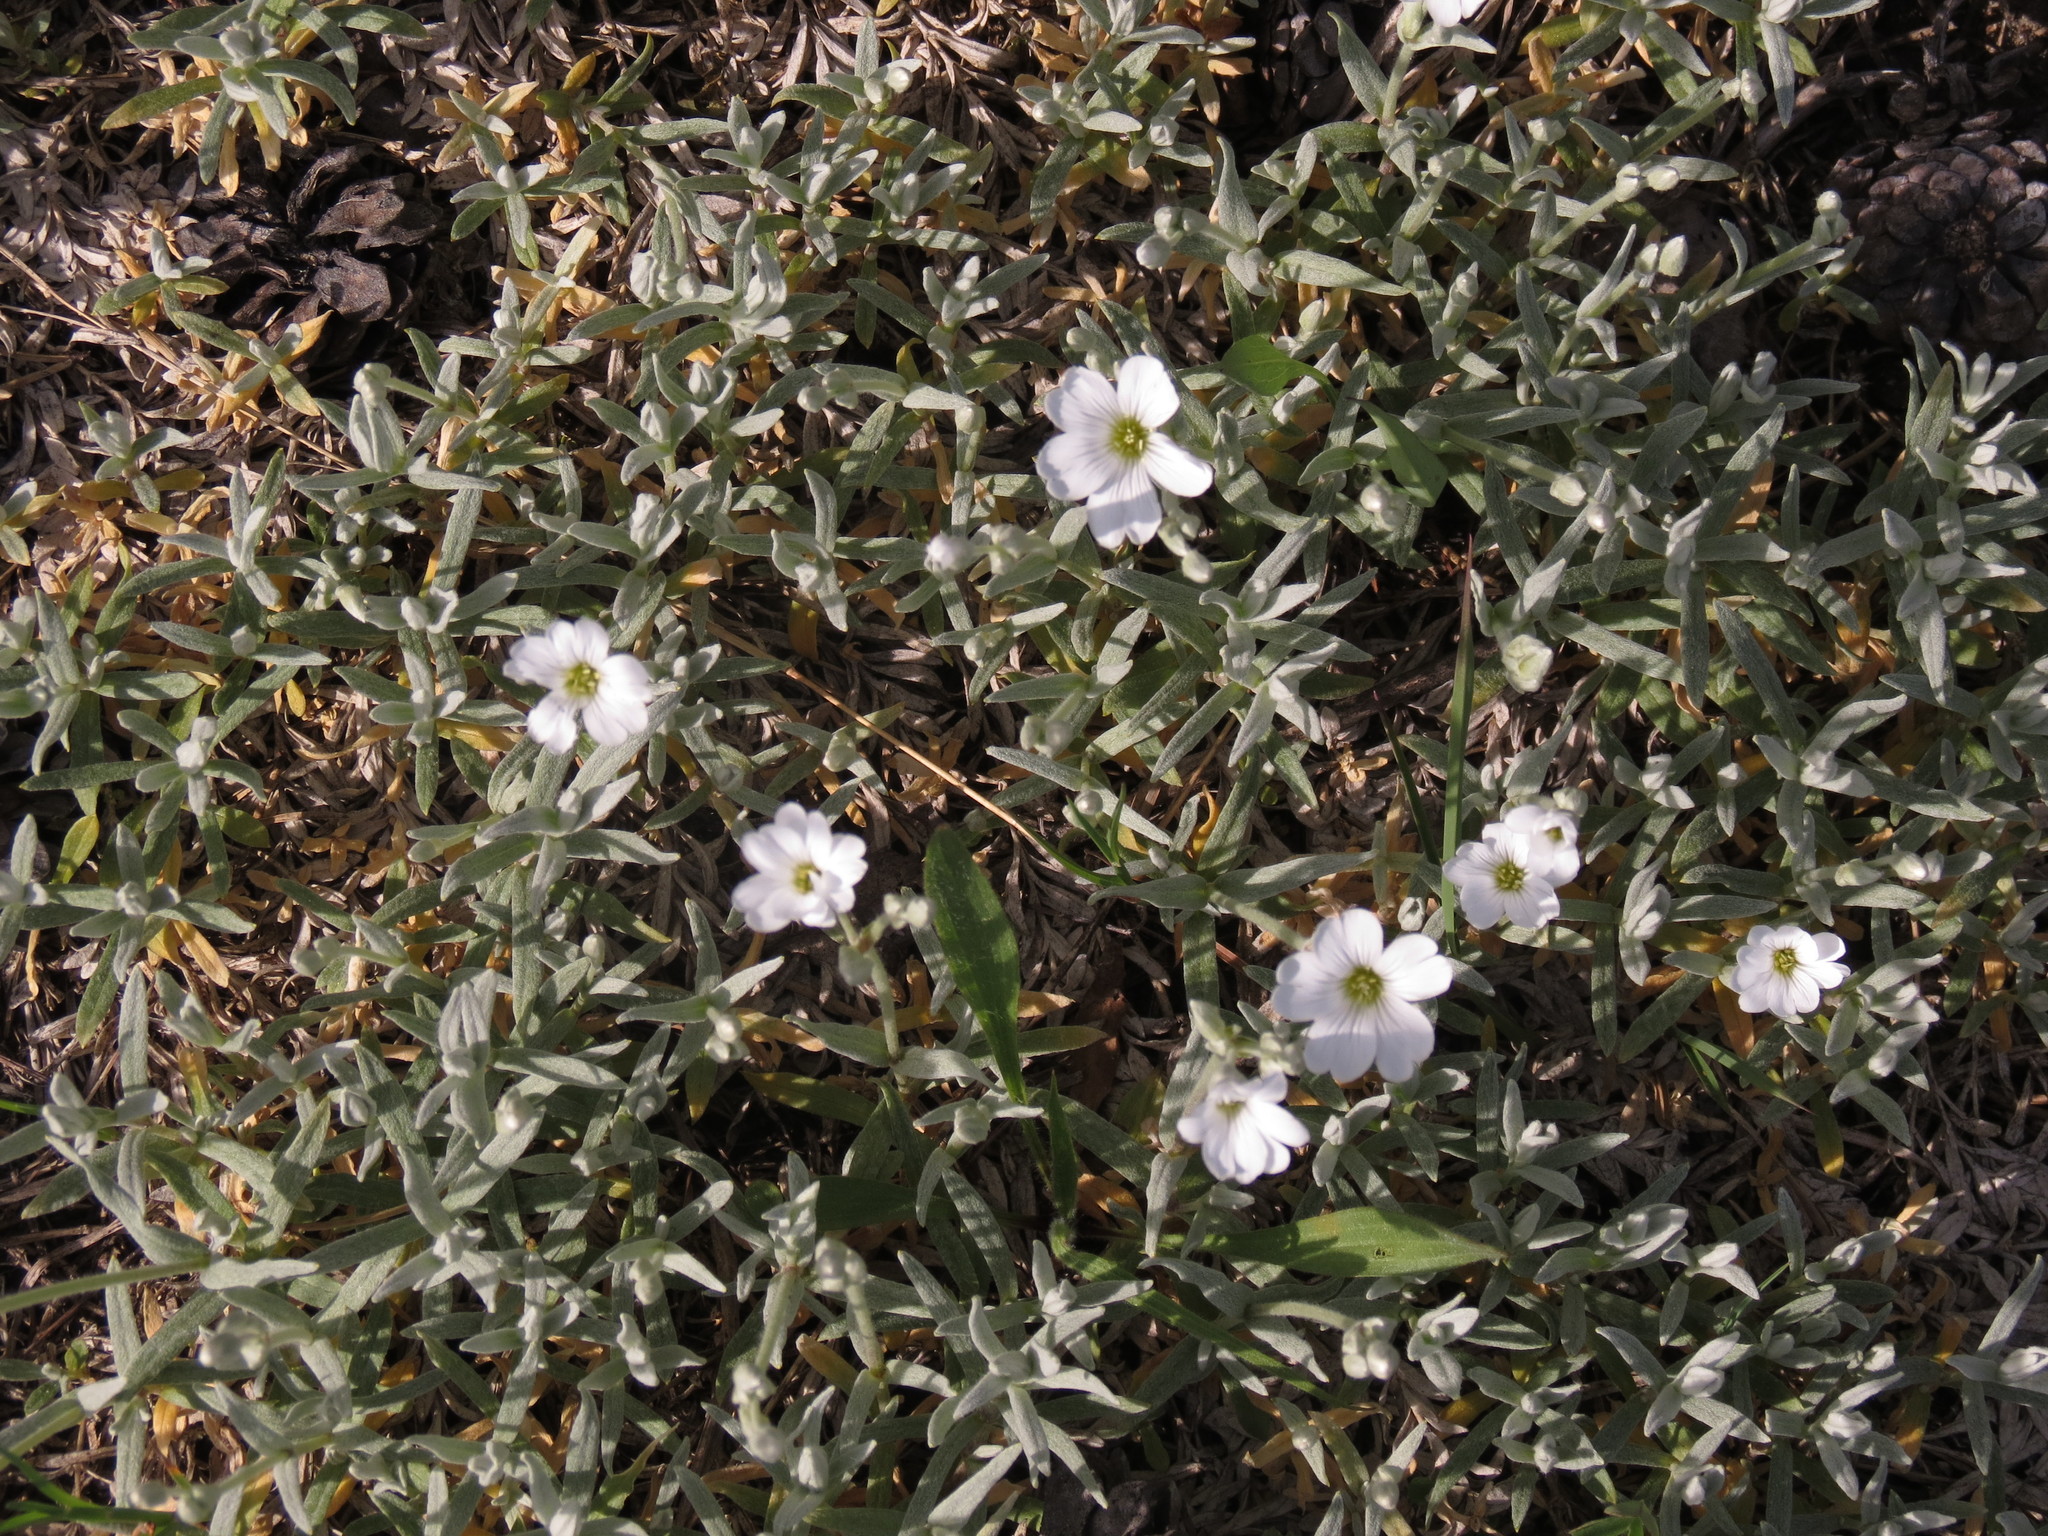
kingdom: Plantae
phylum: Tracheophyta
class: Magnoliopsida
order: Caryophyllales
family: Caryophyllaceae
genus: Cerastium
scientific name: Cerastium tomentosum
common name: Snow-in-summer
